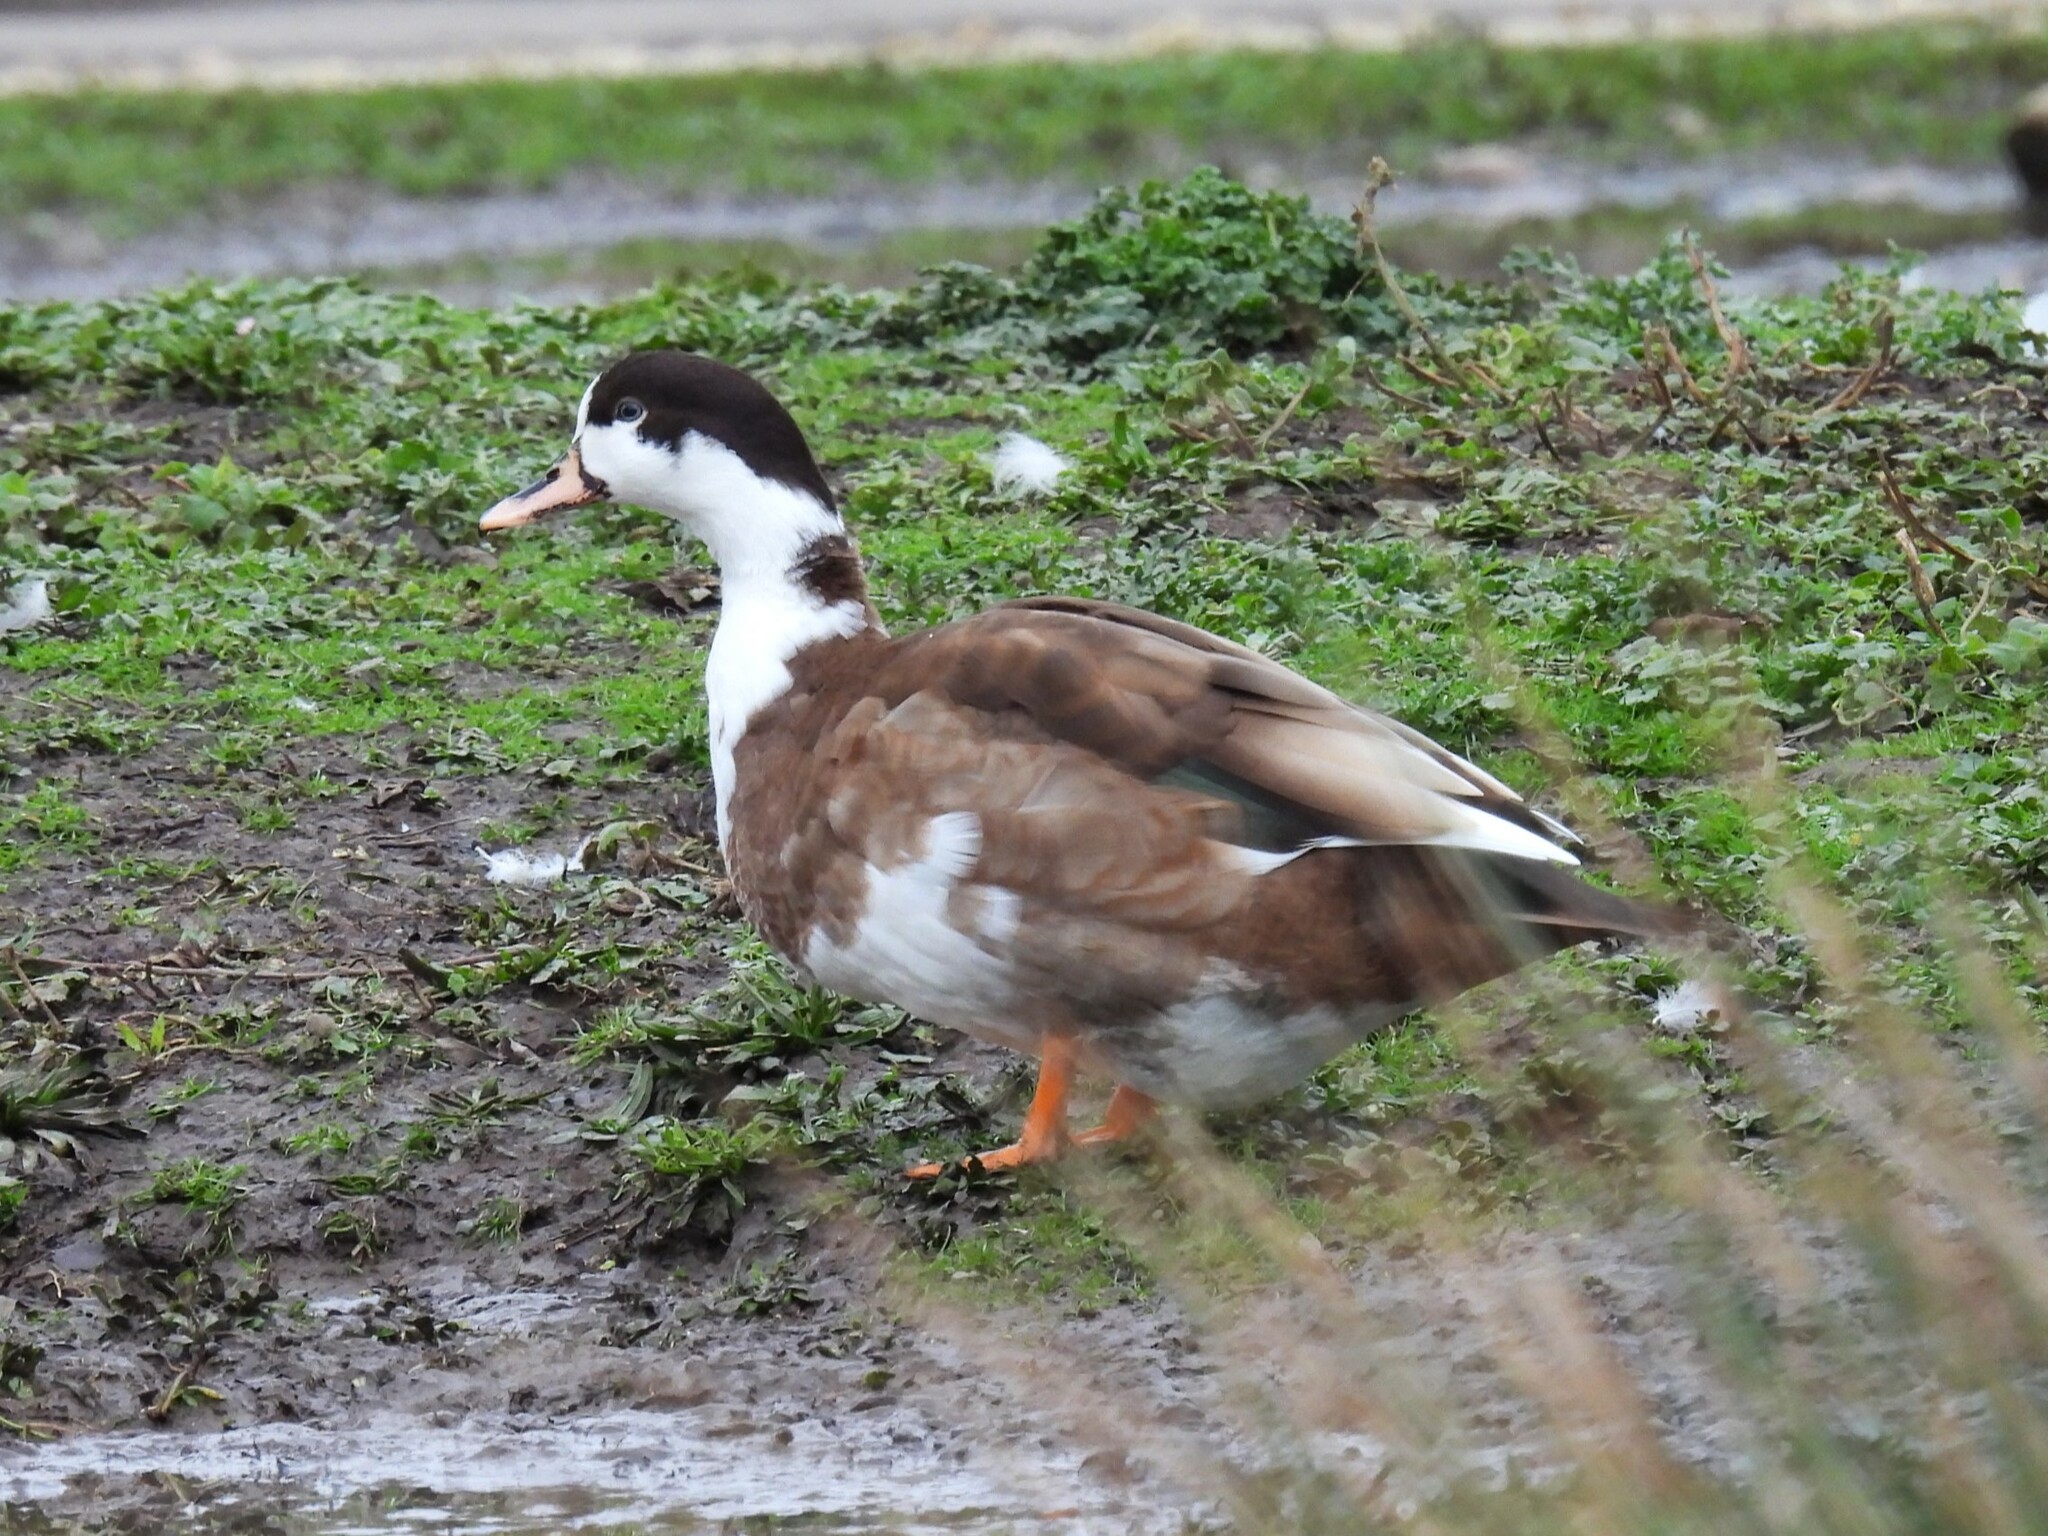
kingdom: Animalia
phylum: Chordata
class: Aves
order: Anseriformes
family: Anatidae
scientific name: Anatidae
